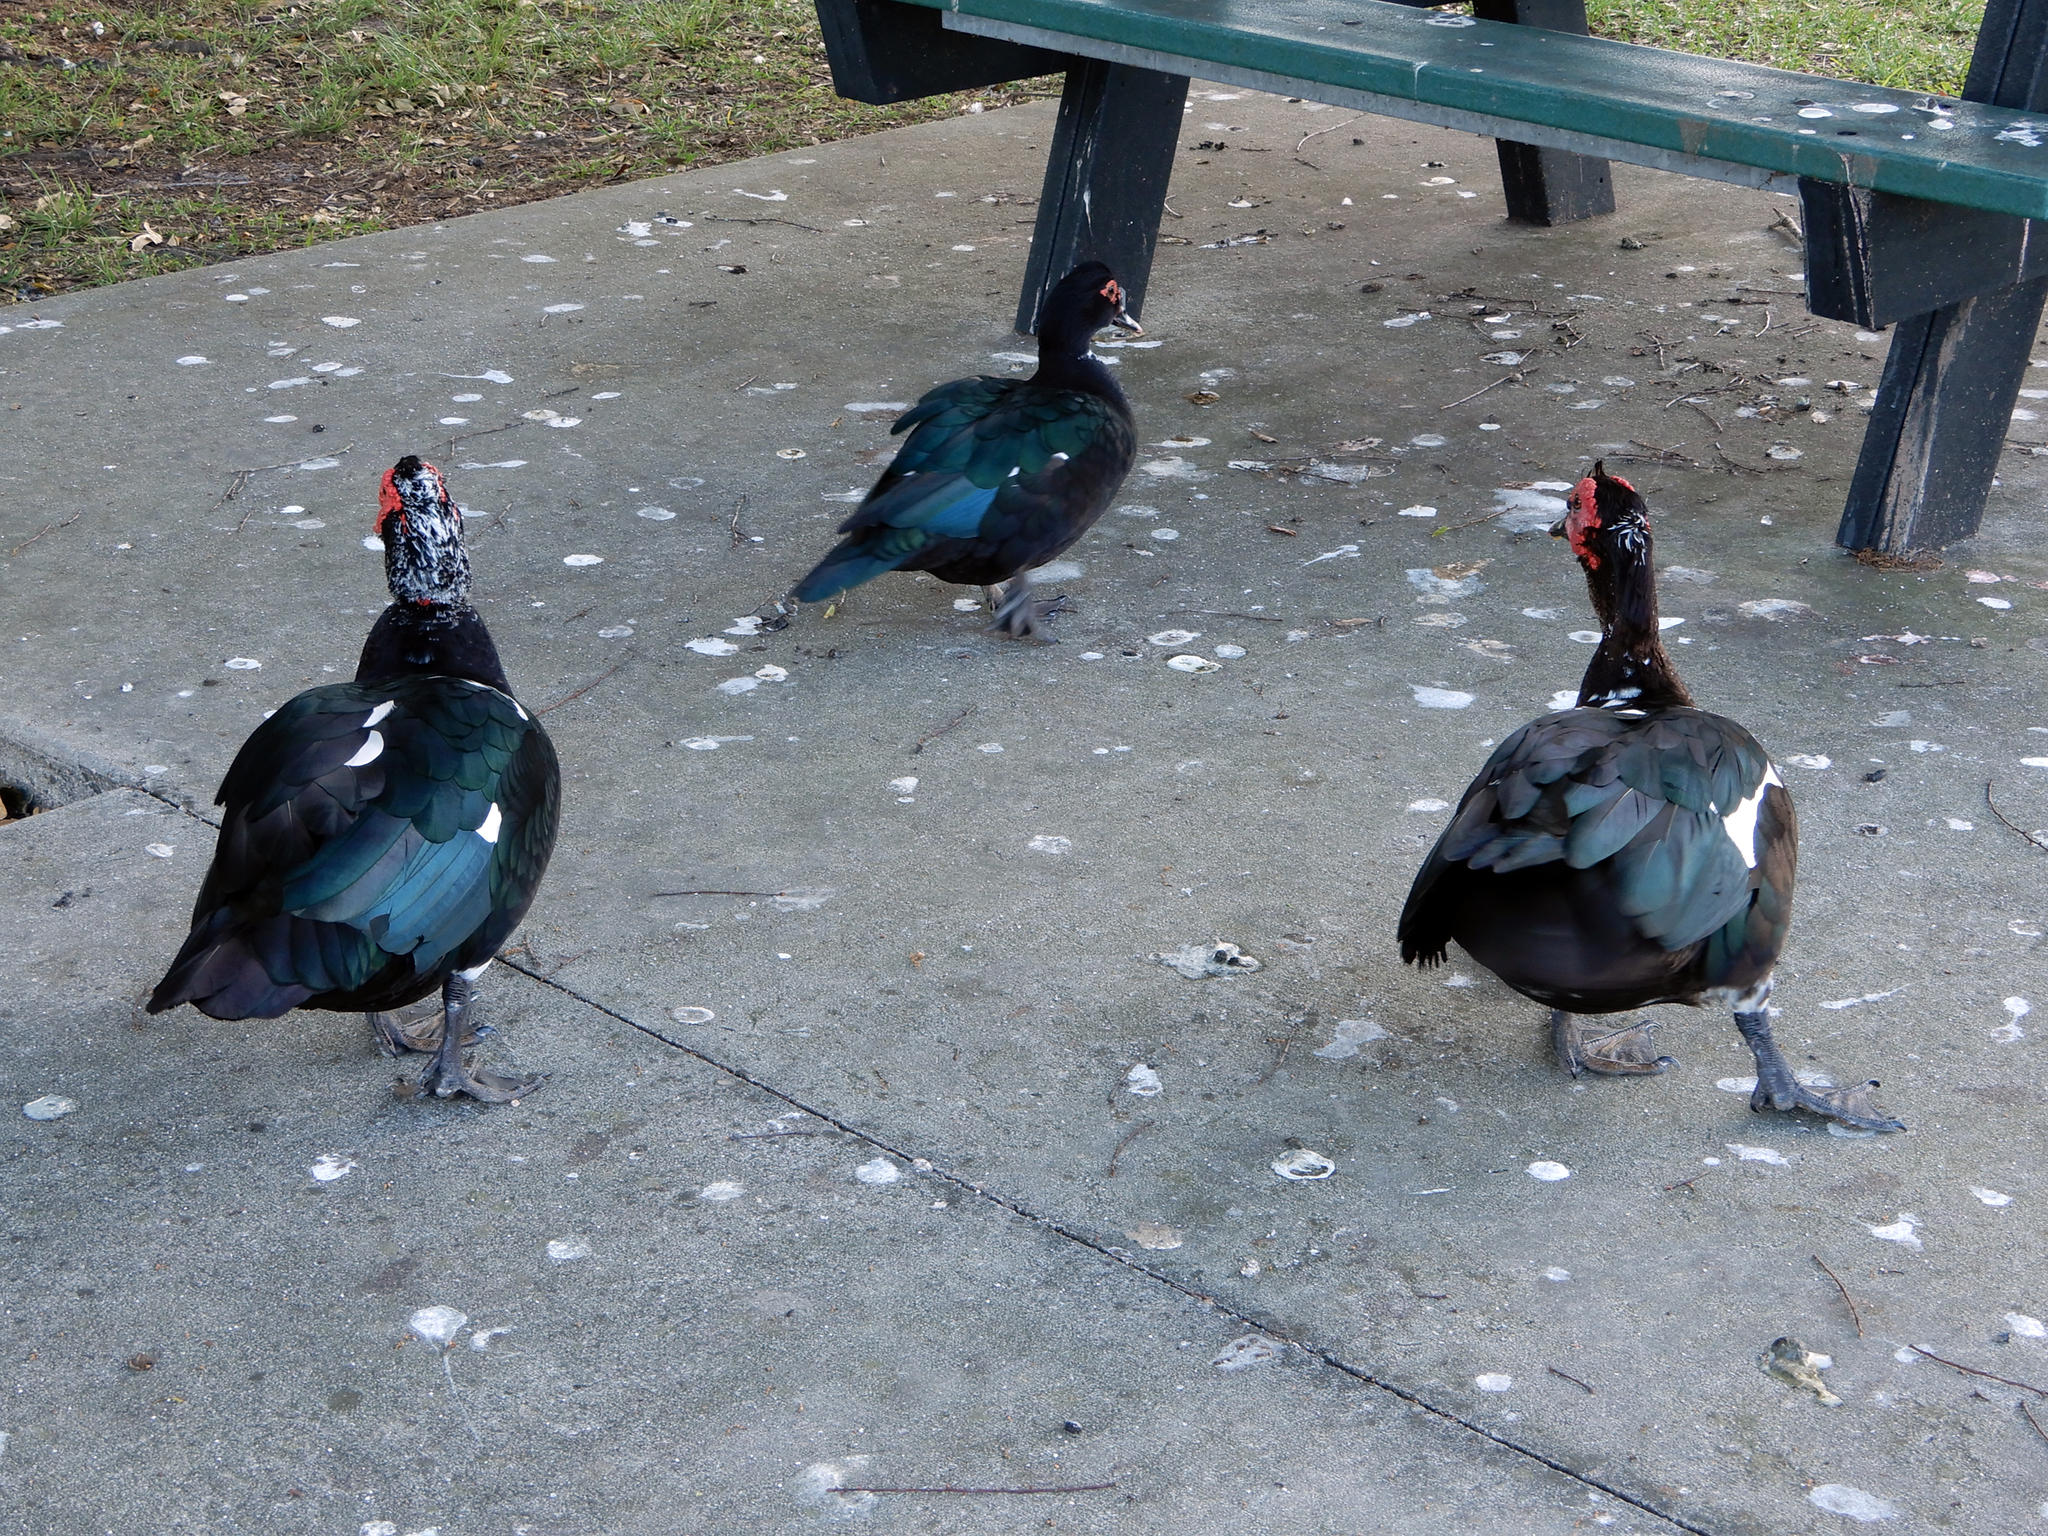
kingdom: Animalia
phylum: Chordata
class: Aves
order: Anseriformes
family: Anatidae
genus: Cairina
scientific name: Cairina moschata
